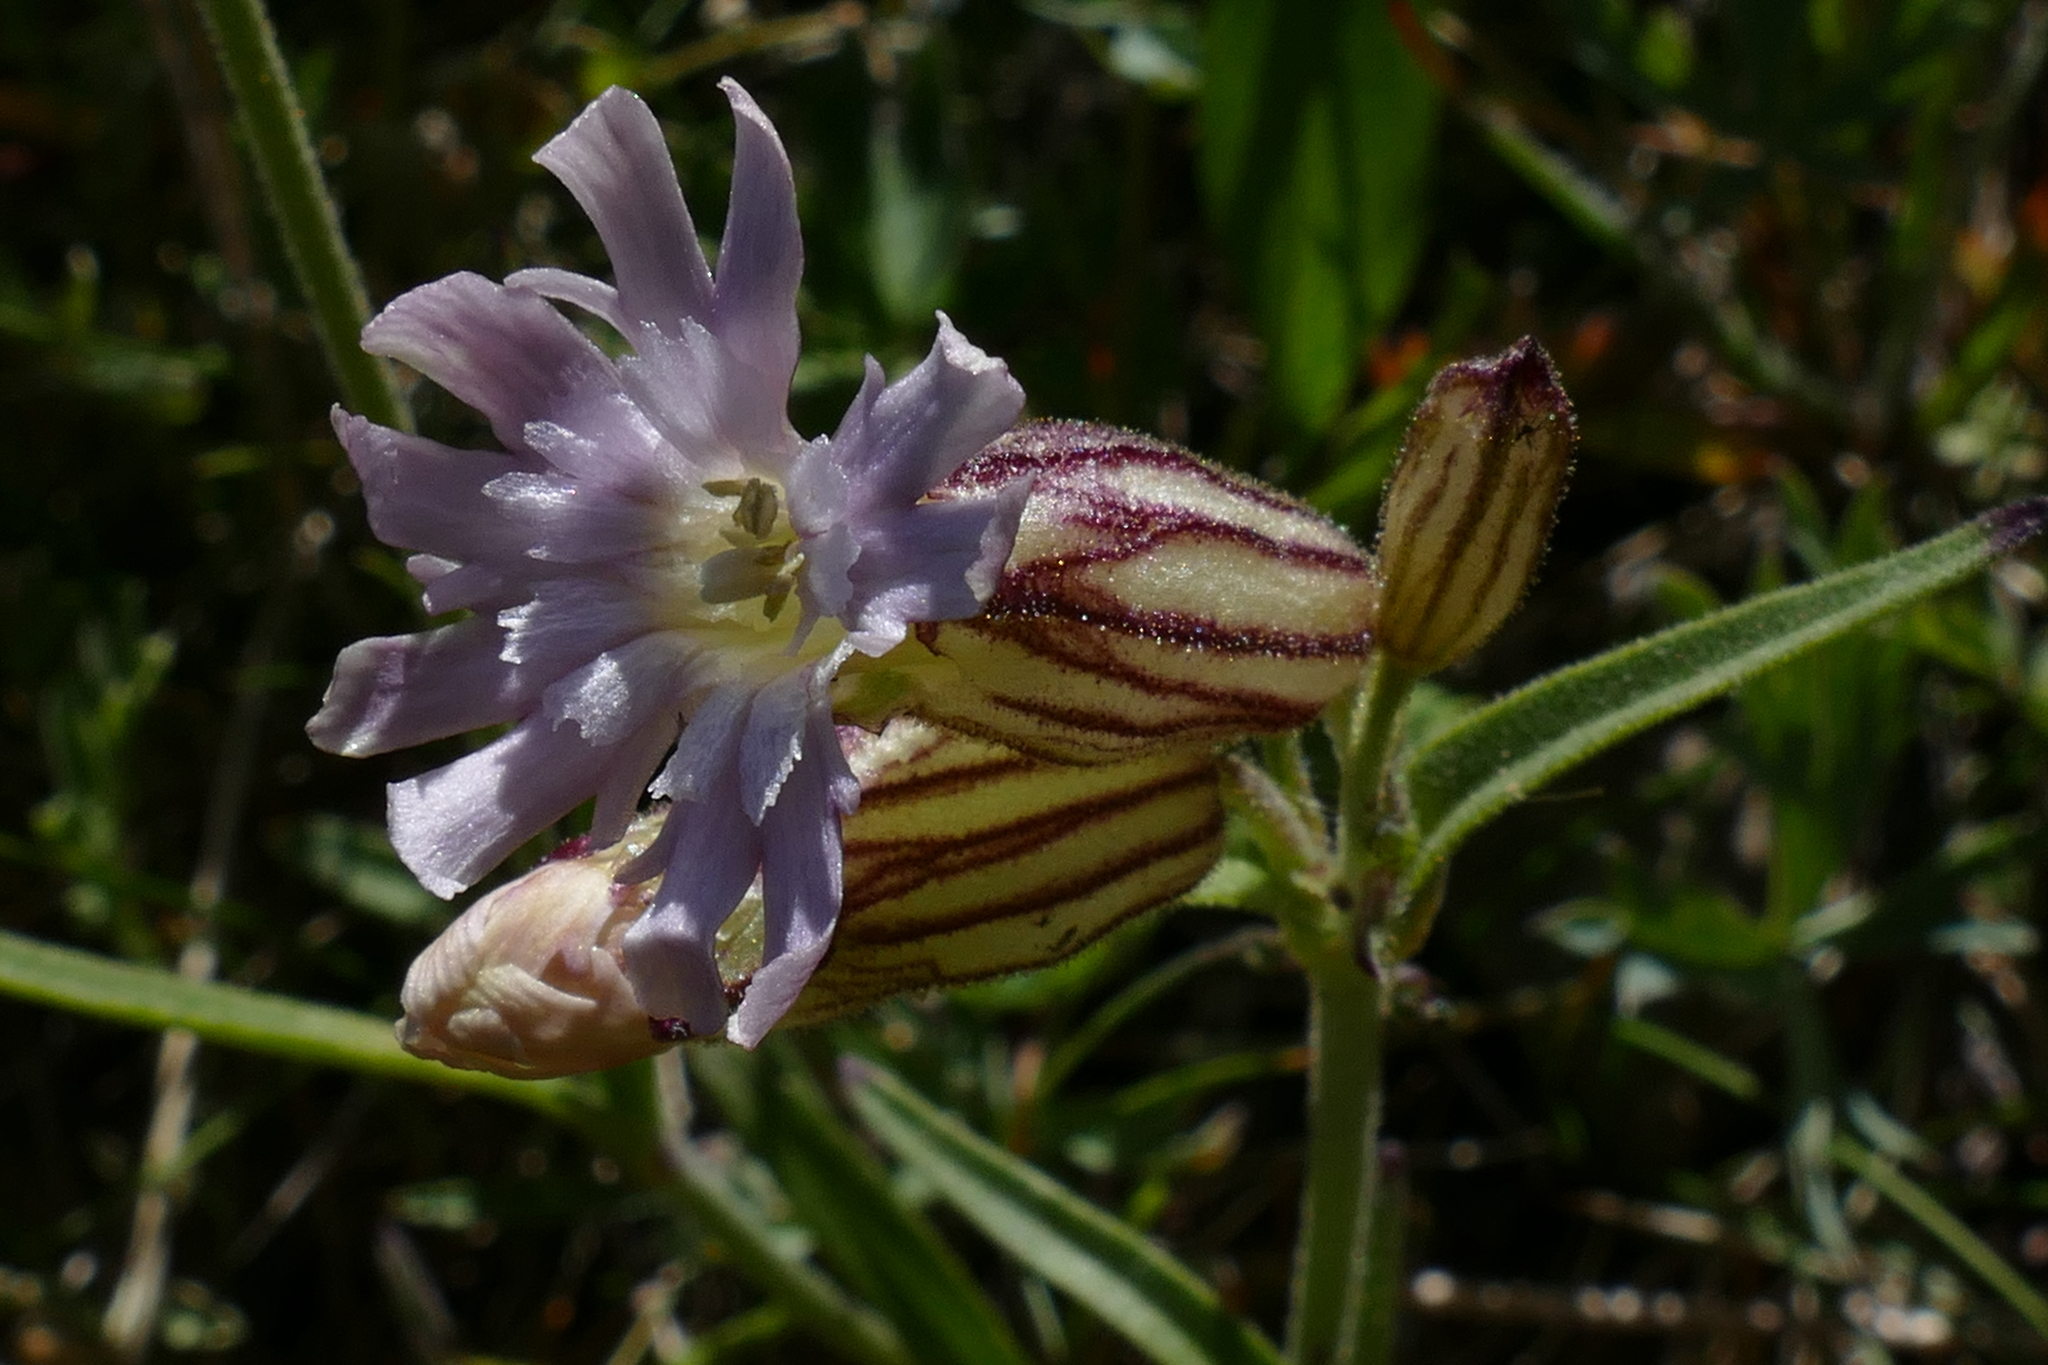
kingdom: Plantae
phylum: Tracheophyta
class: Magnoliopsida
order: Caryophyllales
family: Caryophyllaceae
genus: Silene
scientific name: Silene parryi
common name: Parry's campion
